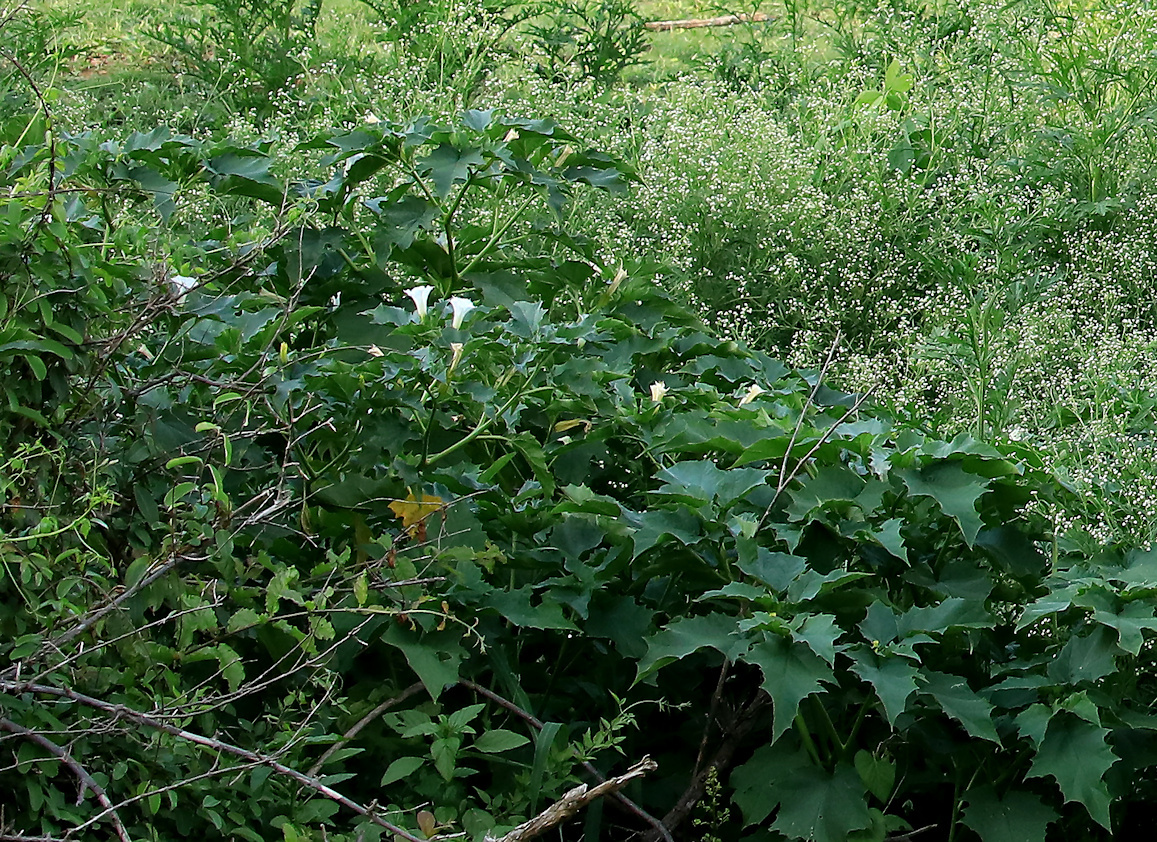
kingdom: Plantae
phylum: Tracheophyta
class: Magnoliopsida
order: Solanales
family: Solanaceae
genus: Datura
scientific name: Datura stramonium
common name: Thorn-apple
